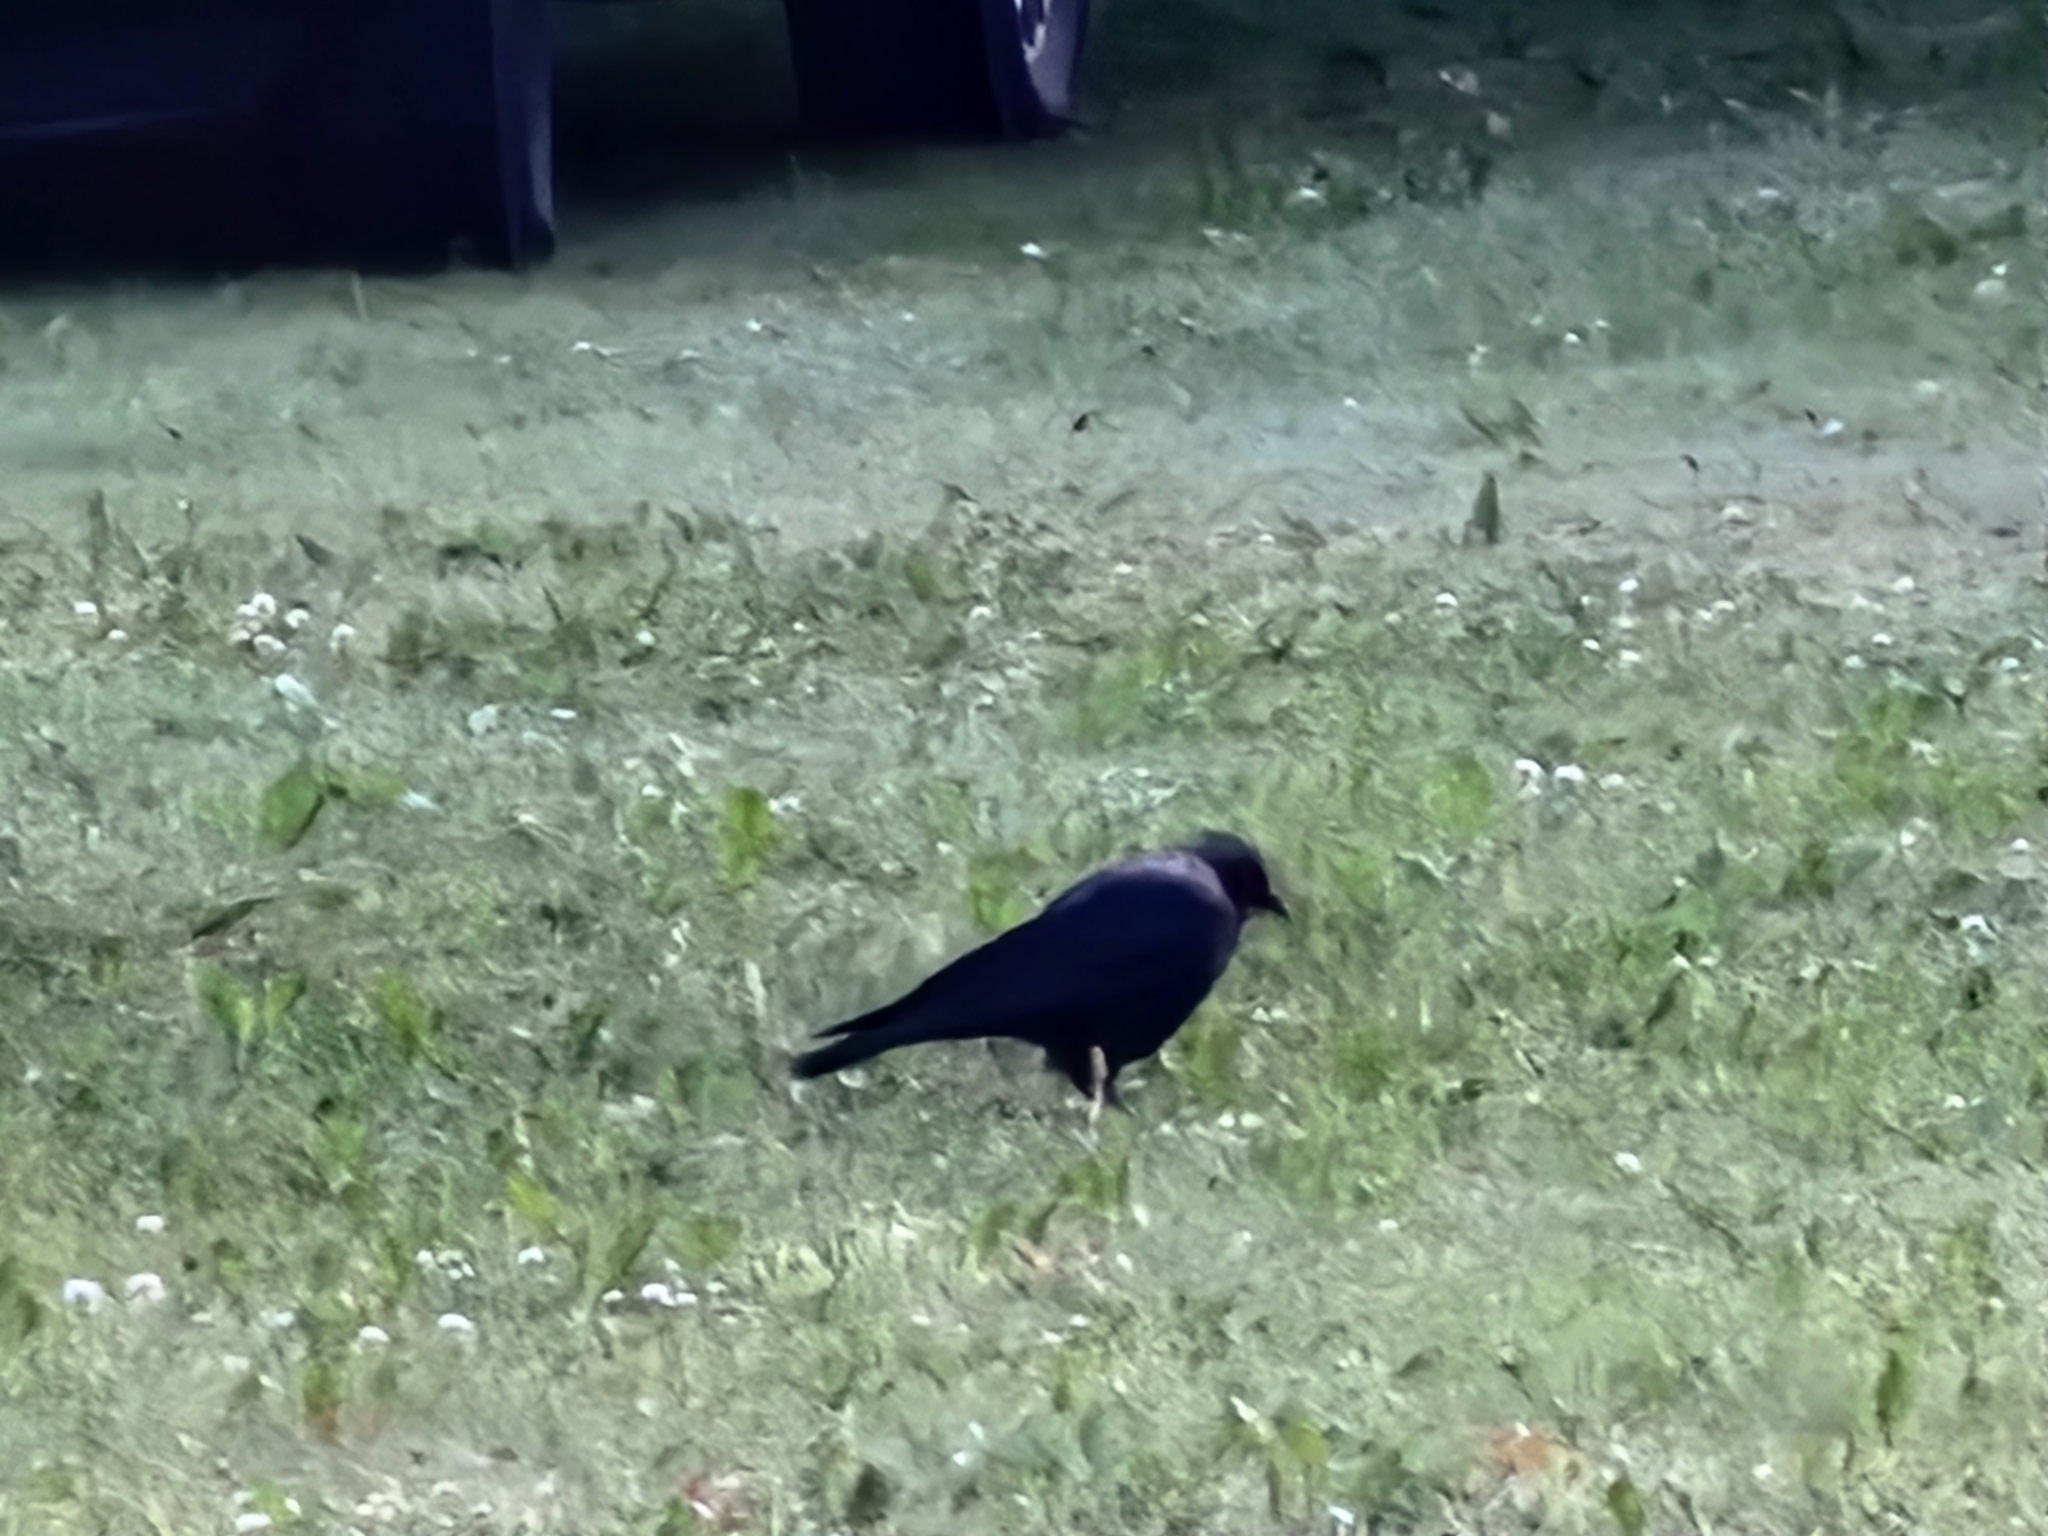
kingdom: Animalia
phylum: Chordata
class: Aves
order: Passeriformes
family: Corvidae
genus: Corvus
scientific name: Corvus brachyrhynchos
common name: American crow
